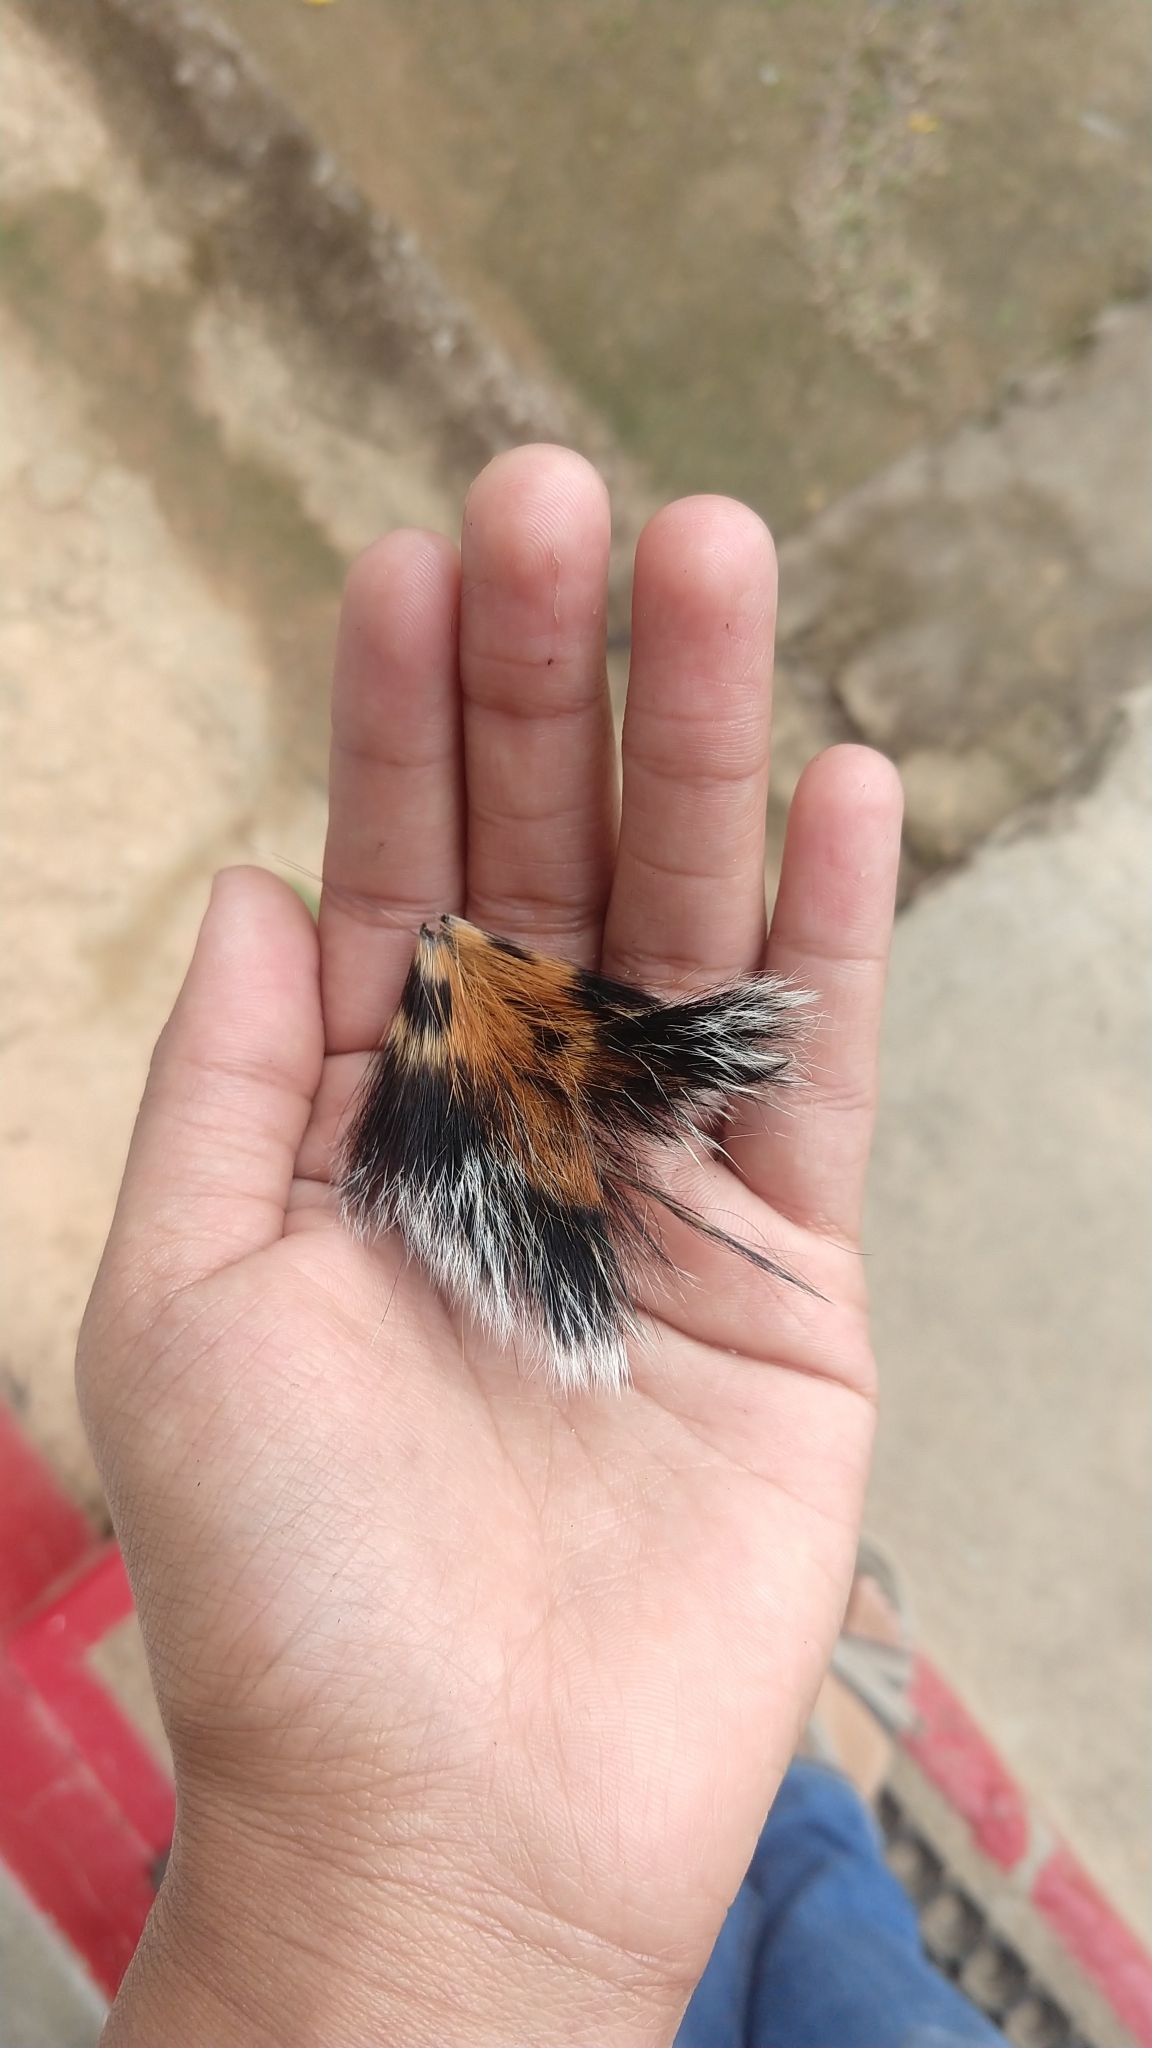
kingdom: Animalia
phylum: Chordata
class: Mammalia
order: Carnivora
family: Felidae
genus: Panthera
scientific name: Panthera tigris
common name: Tiger
